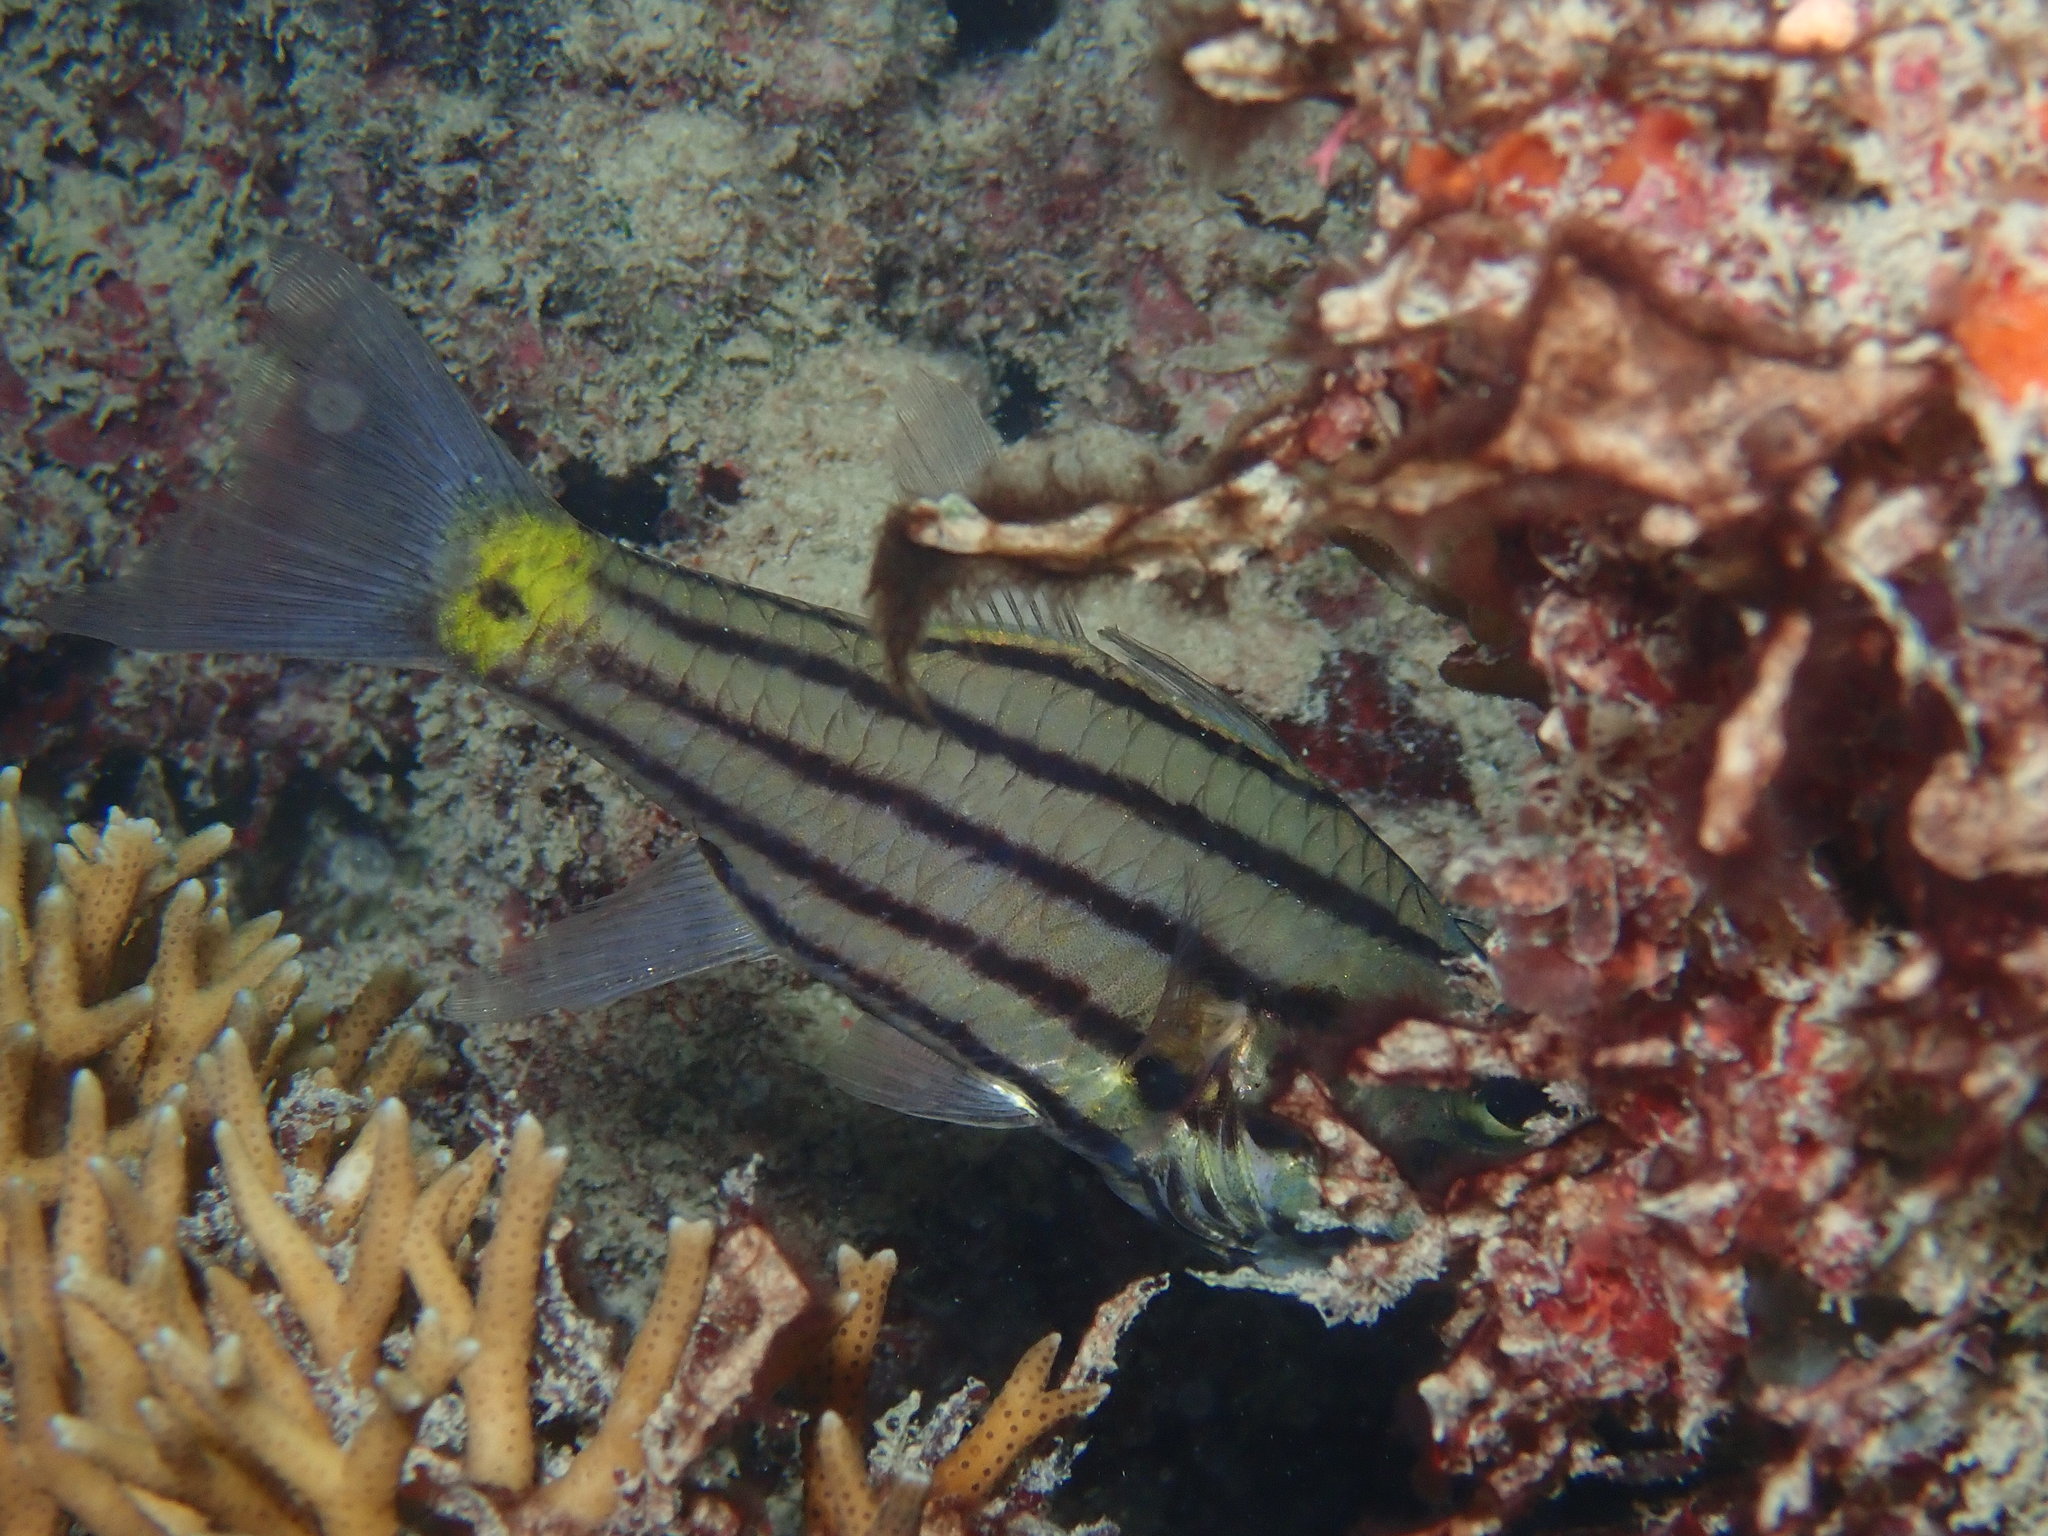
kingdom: Animalia
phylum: Chordata
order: Perciformes
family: Apogonidae
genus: Cheilodipterus
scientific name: Cheilodipterus quinquelineatus
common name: Five-lined cardinalfish
